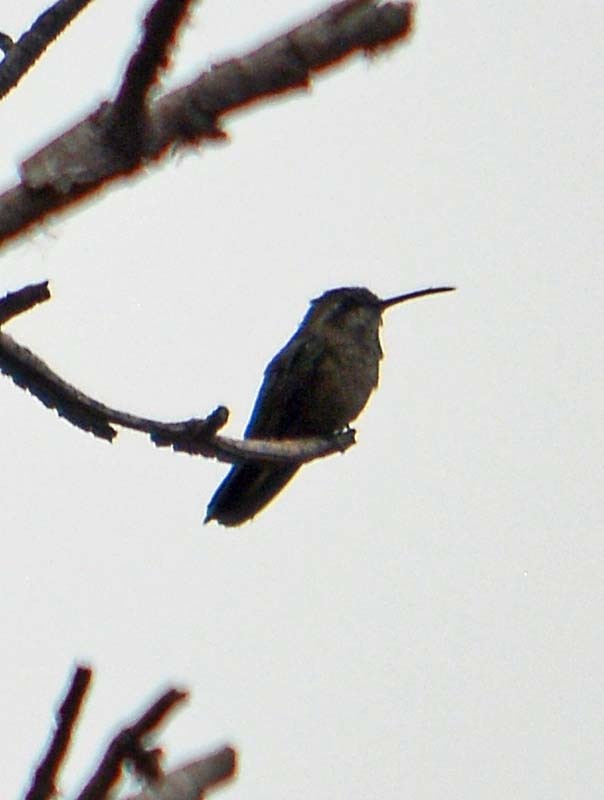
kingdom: Animalia
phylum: Chordata
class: Aves
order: Apodiformes
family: Trochilidae
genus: Cynanthus
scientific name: Cynanthus latirostris
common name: Broad-billed hummingbird
